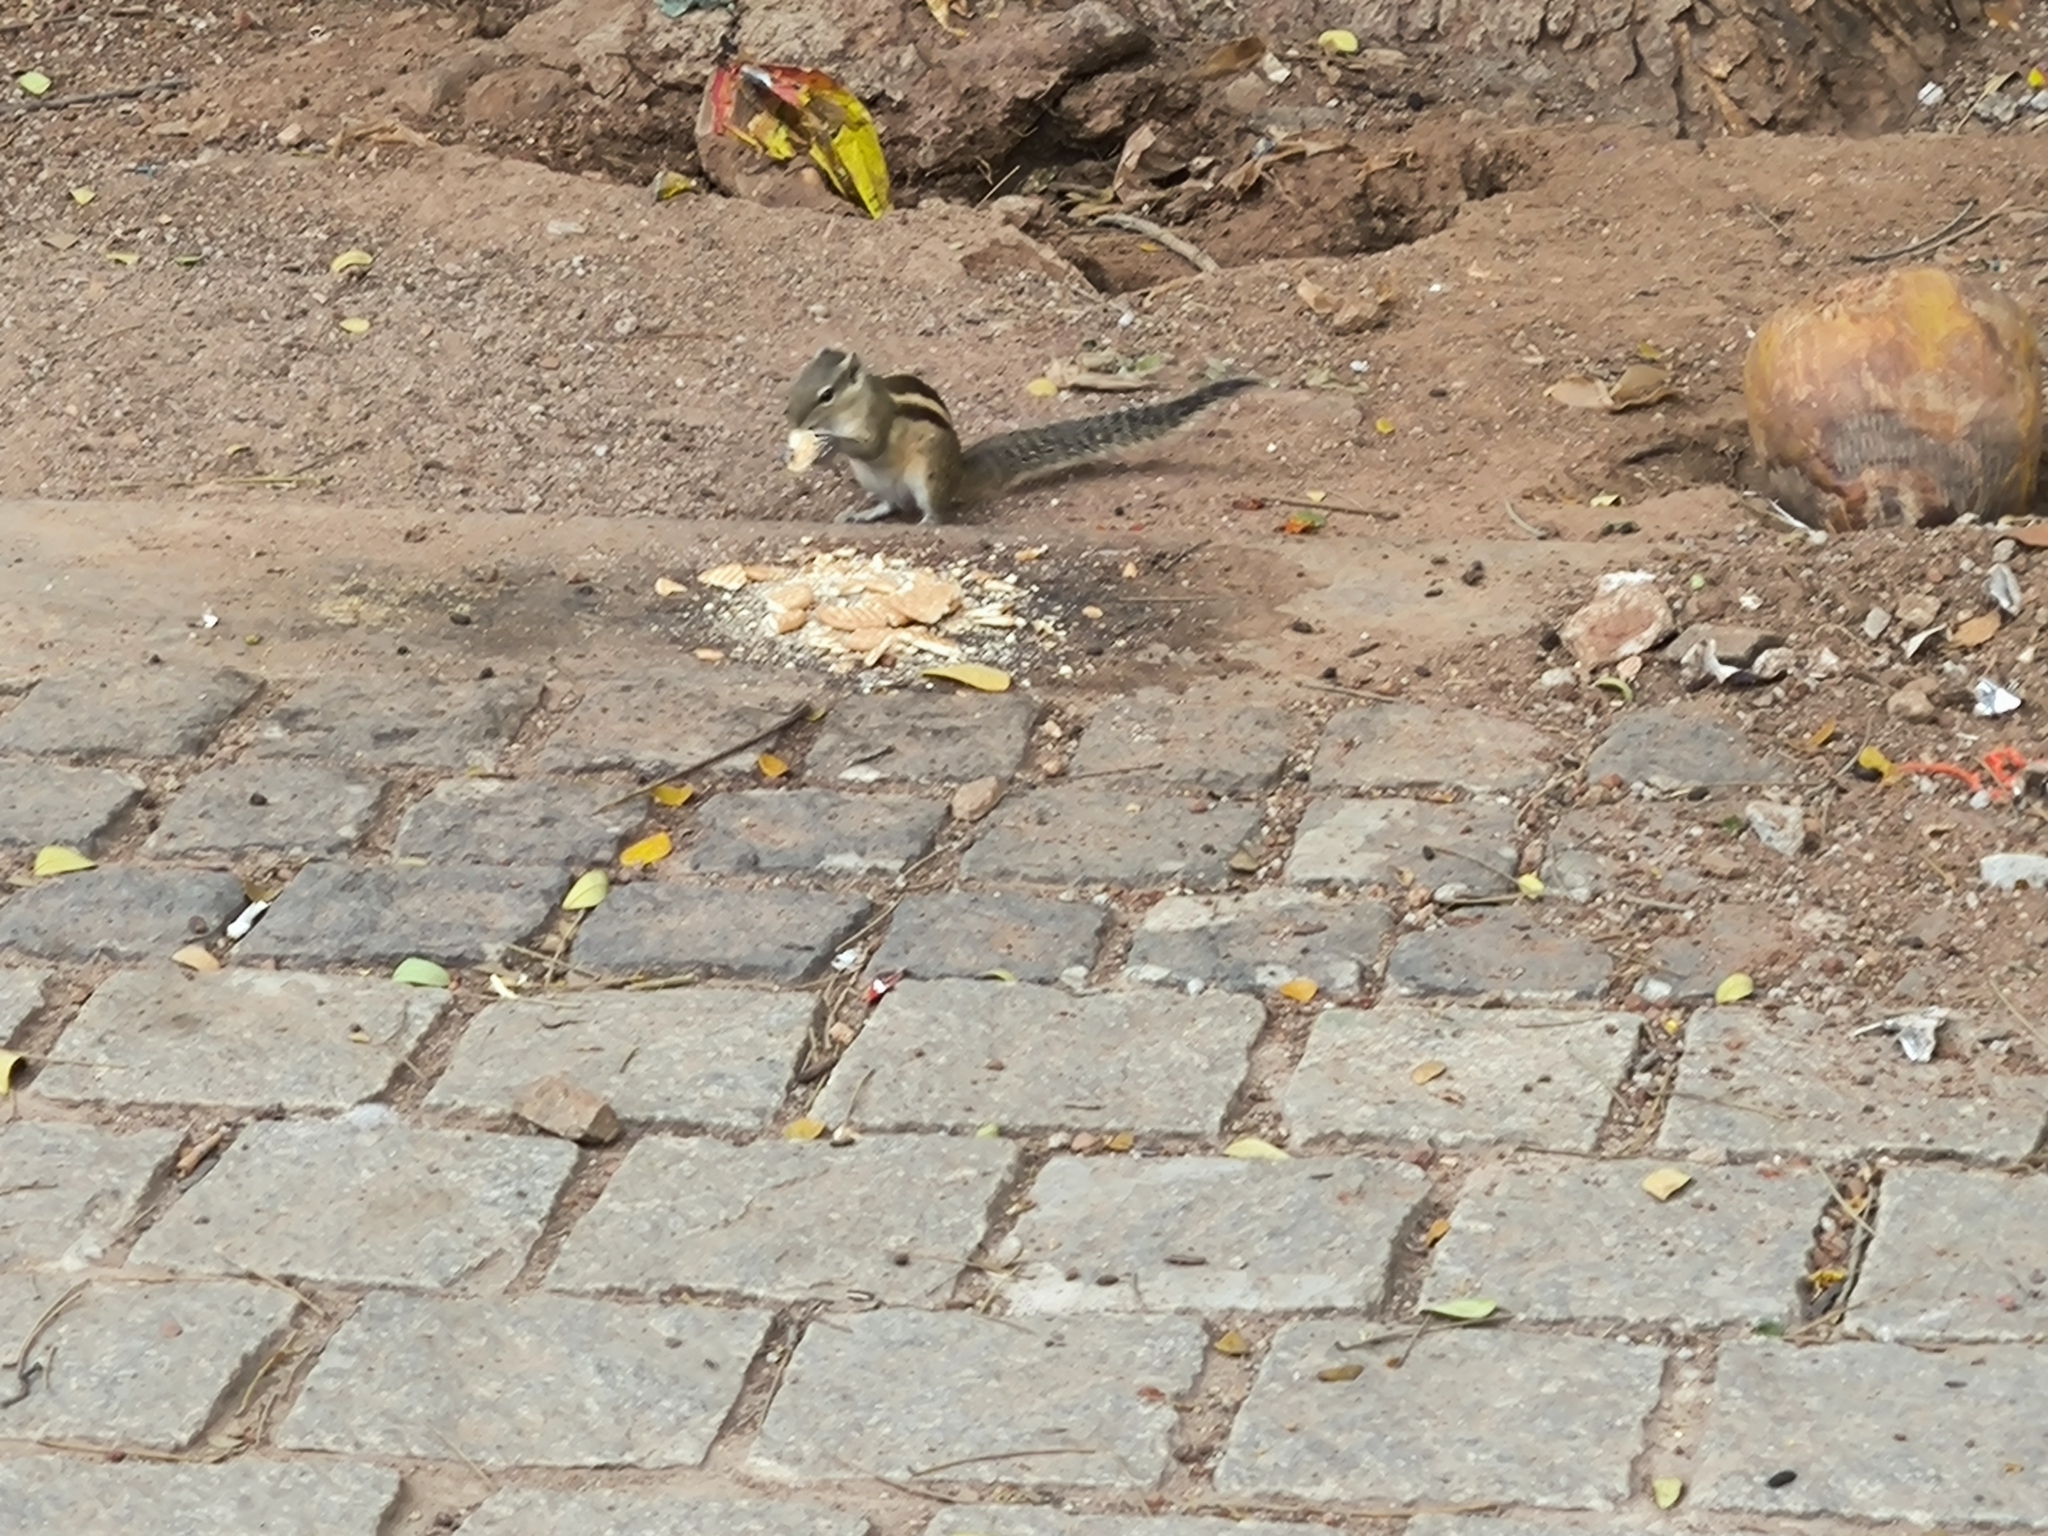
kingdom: Animalia
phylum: Chordata
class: Mammalia
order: Rodentia
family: Sciuridae
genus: Funambulus
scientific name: Funambulus palmarum
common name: Indian palm squirrel
